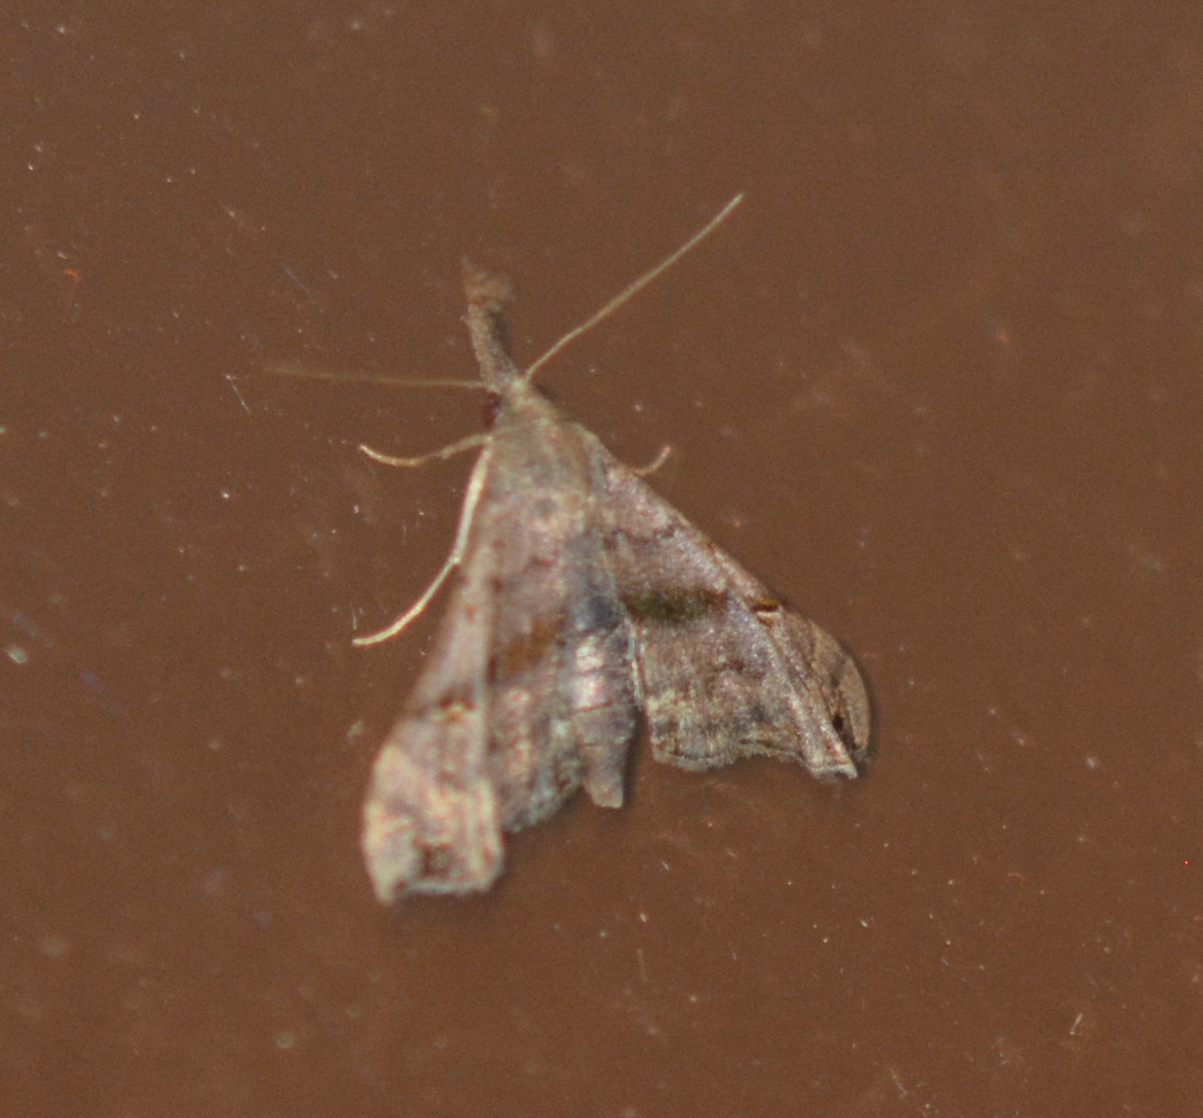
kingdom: Animalia
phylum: Arthropoda
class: Insecta
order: Lepidoptera
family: Erebidae
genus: Palthis
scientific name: Palthis asopialis
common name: Faint-spotted palthis moth
